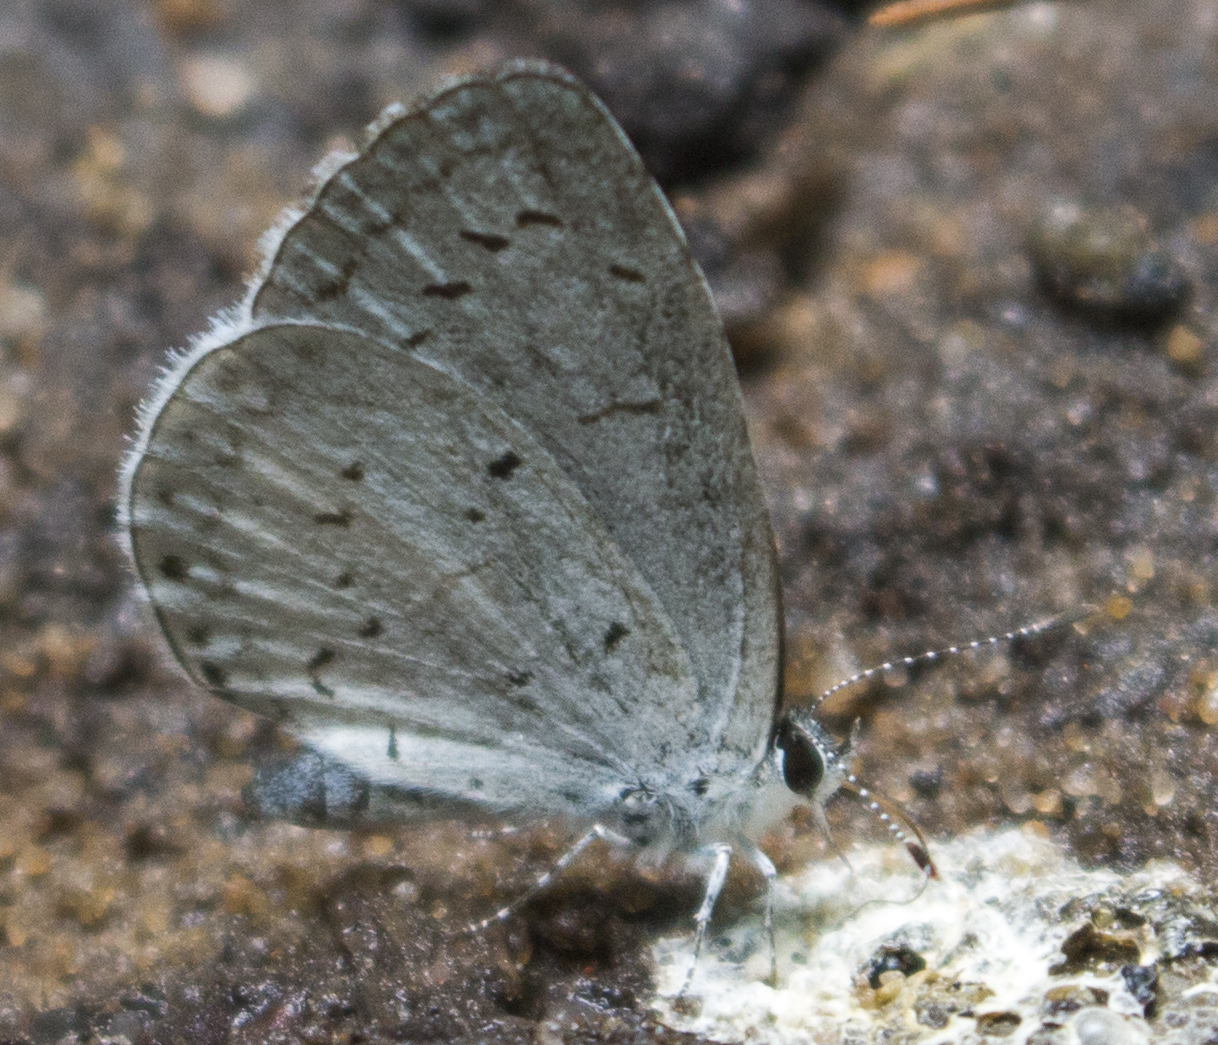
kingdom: Animalia
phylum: Arthropoda
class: Insecta
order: Lepidoptera
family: Lycaenidae
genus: Cyaniris
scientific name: Cyaniris neglecta
